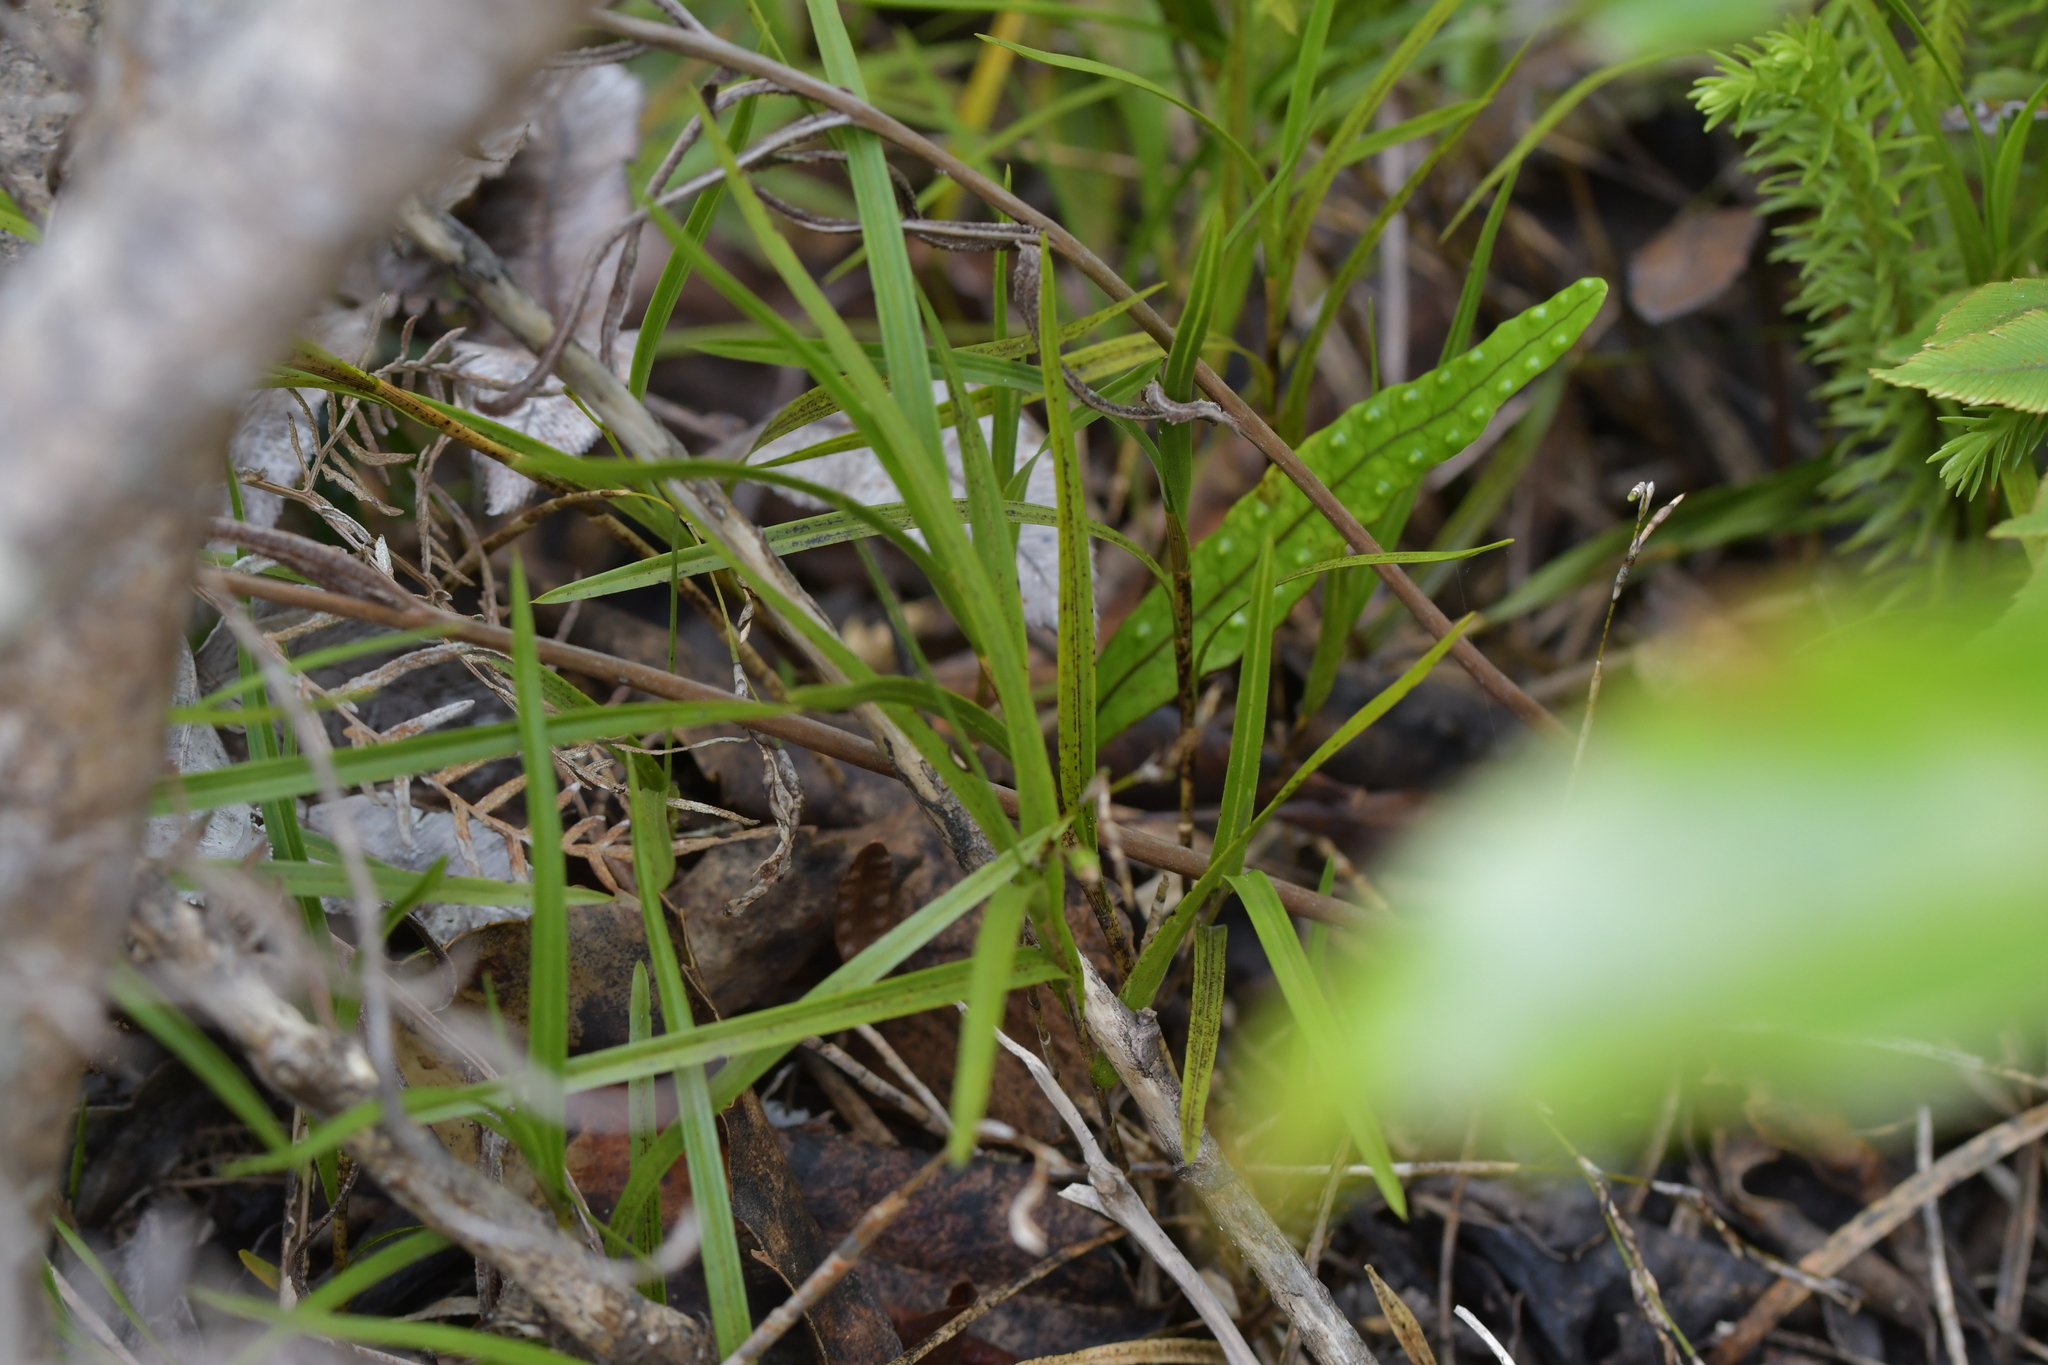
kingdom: Plantae
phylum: Tracheophyta
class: Liliopsida
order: Asparagales
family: Orchidaceae
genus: Earina
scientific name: Earina mucronata
